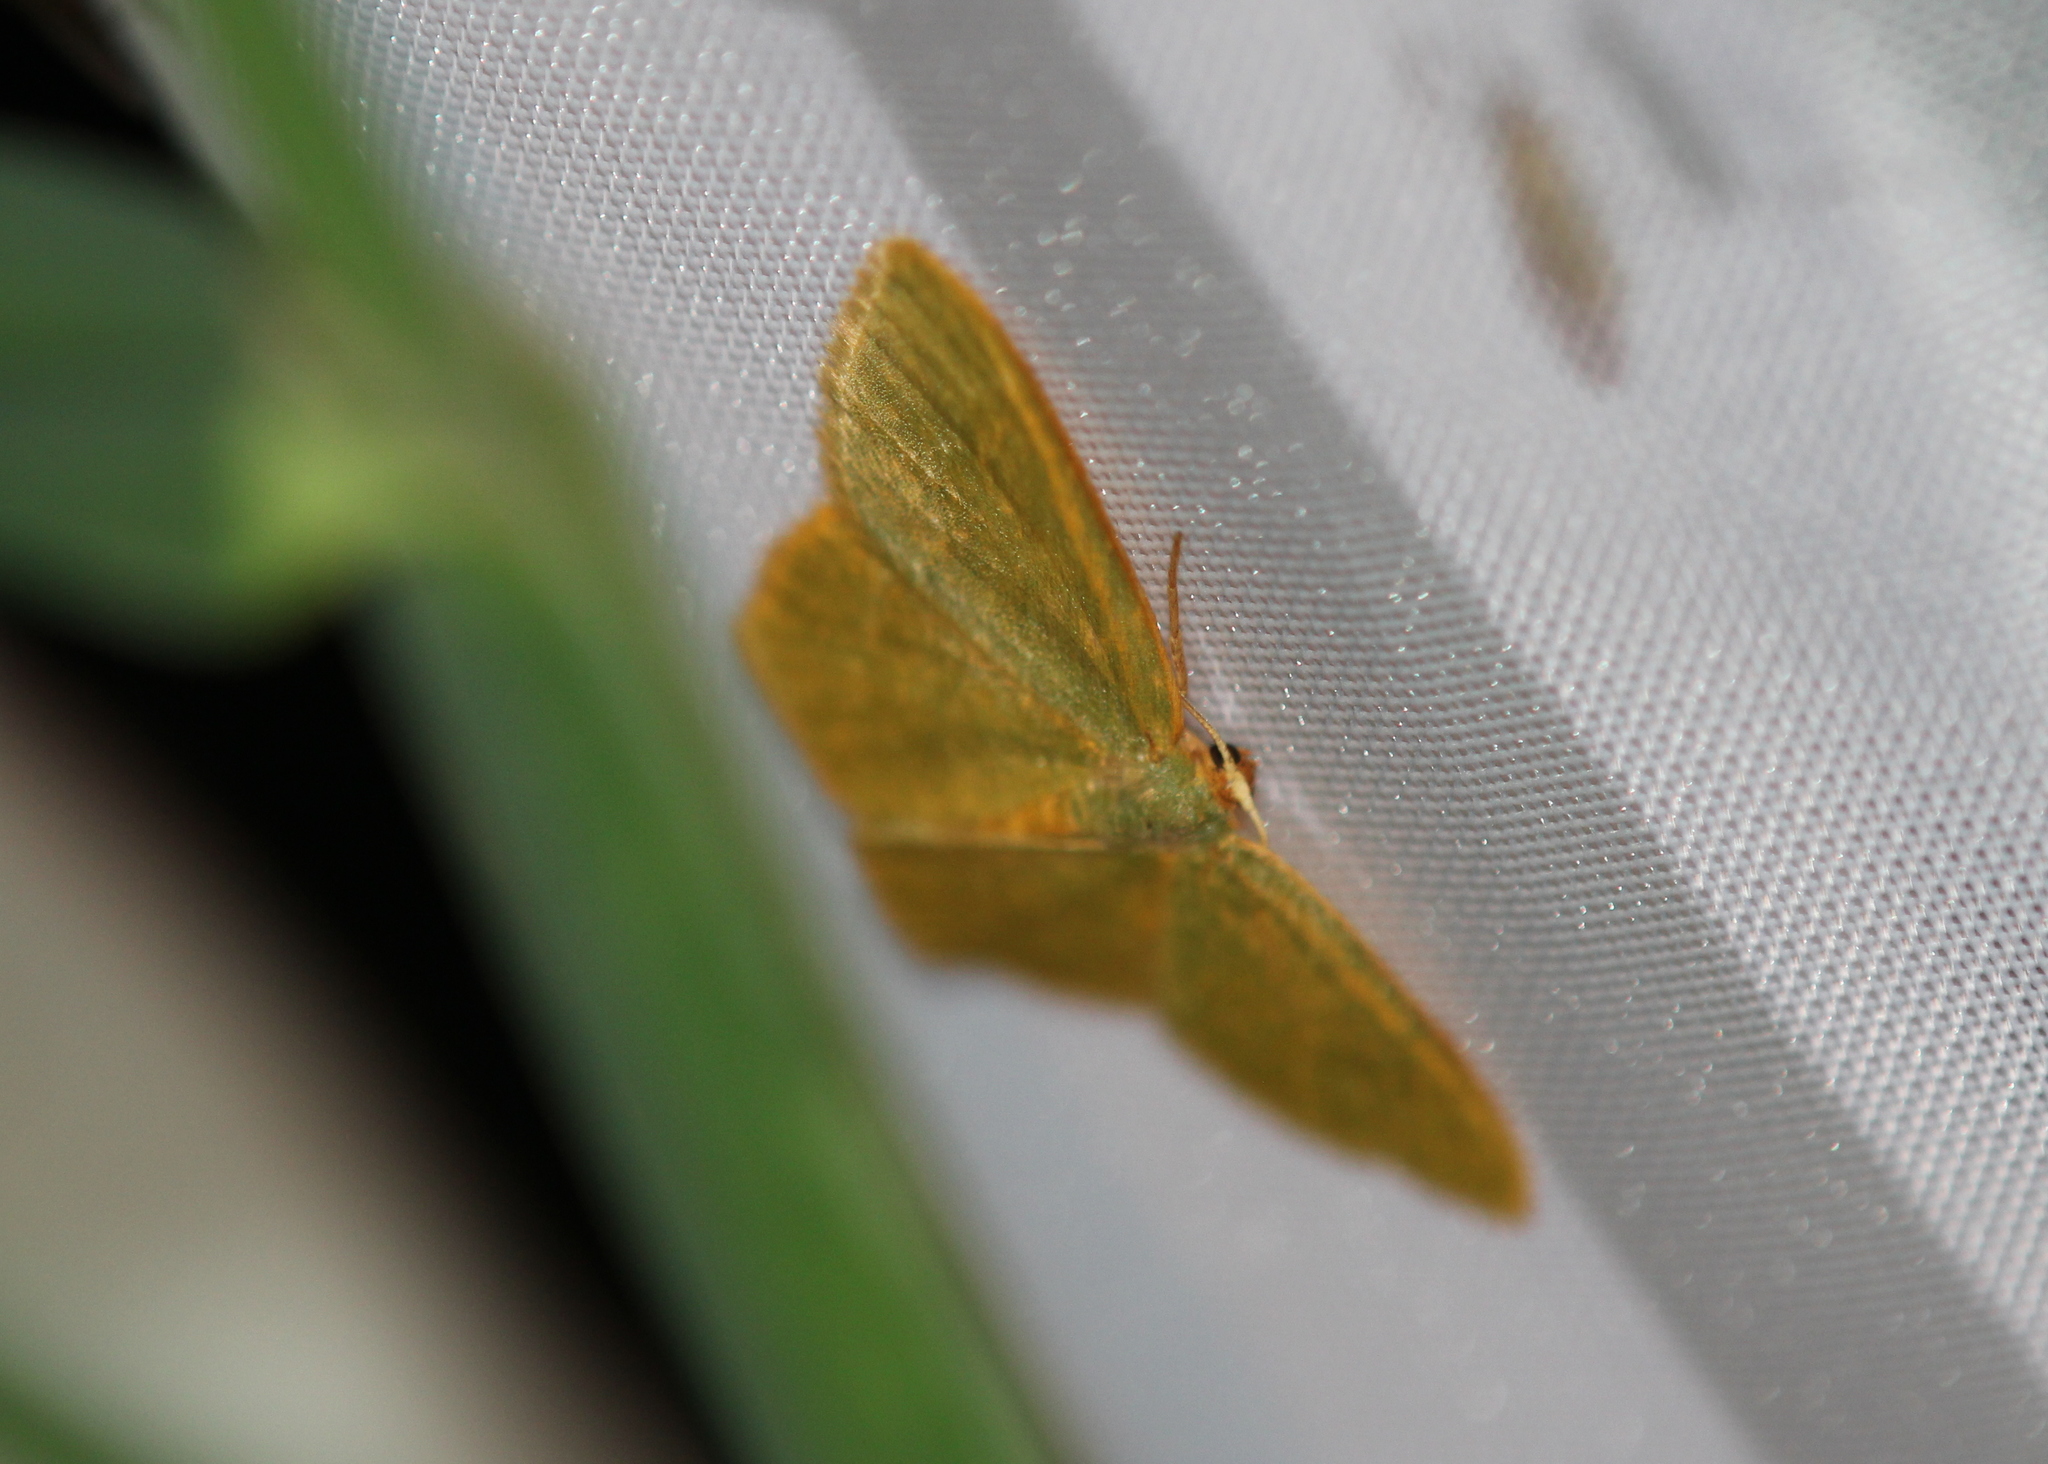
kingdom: Animalia
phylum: Arthropoda
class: Insecta
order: Lepidoptera
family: Geometridae
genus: Thalera
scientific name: Thalera pistasciaria
